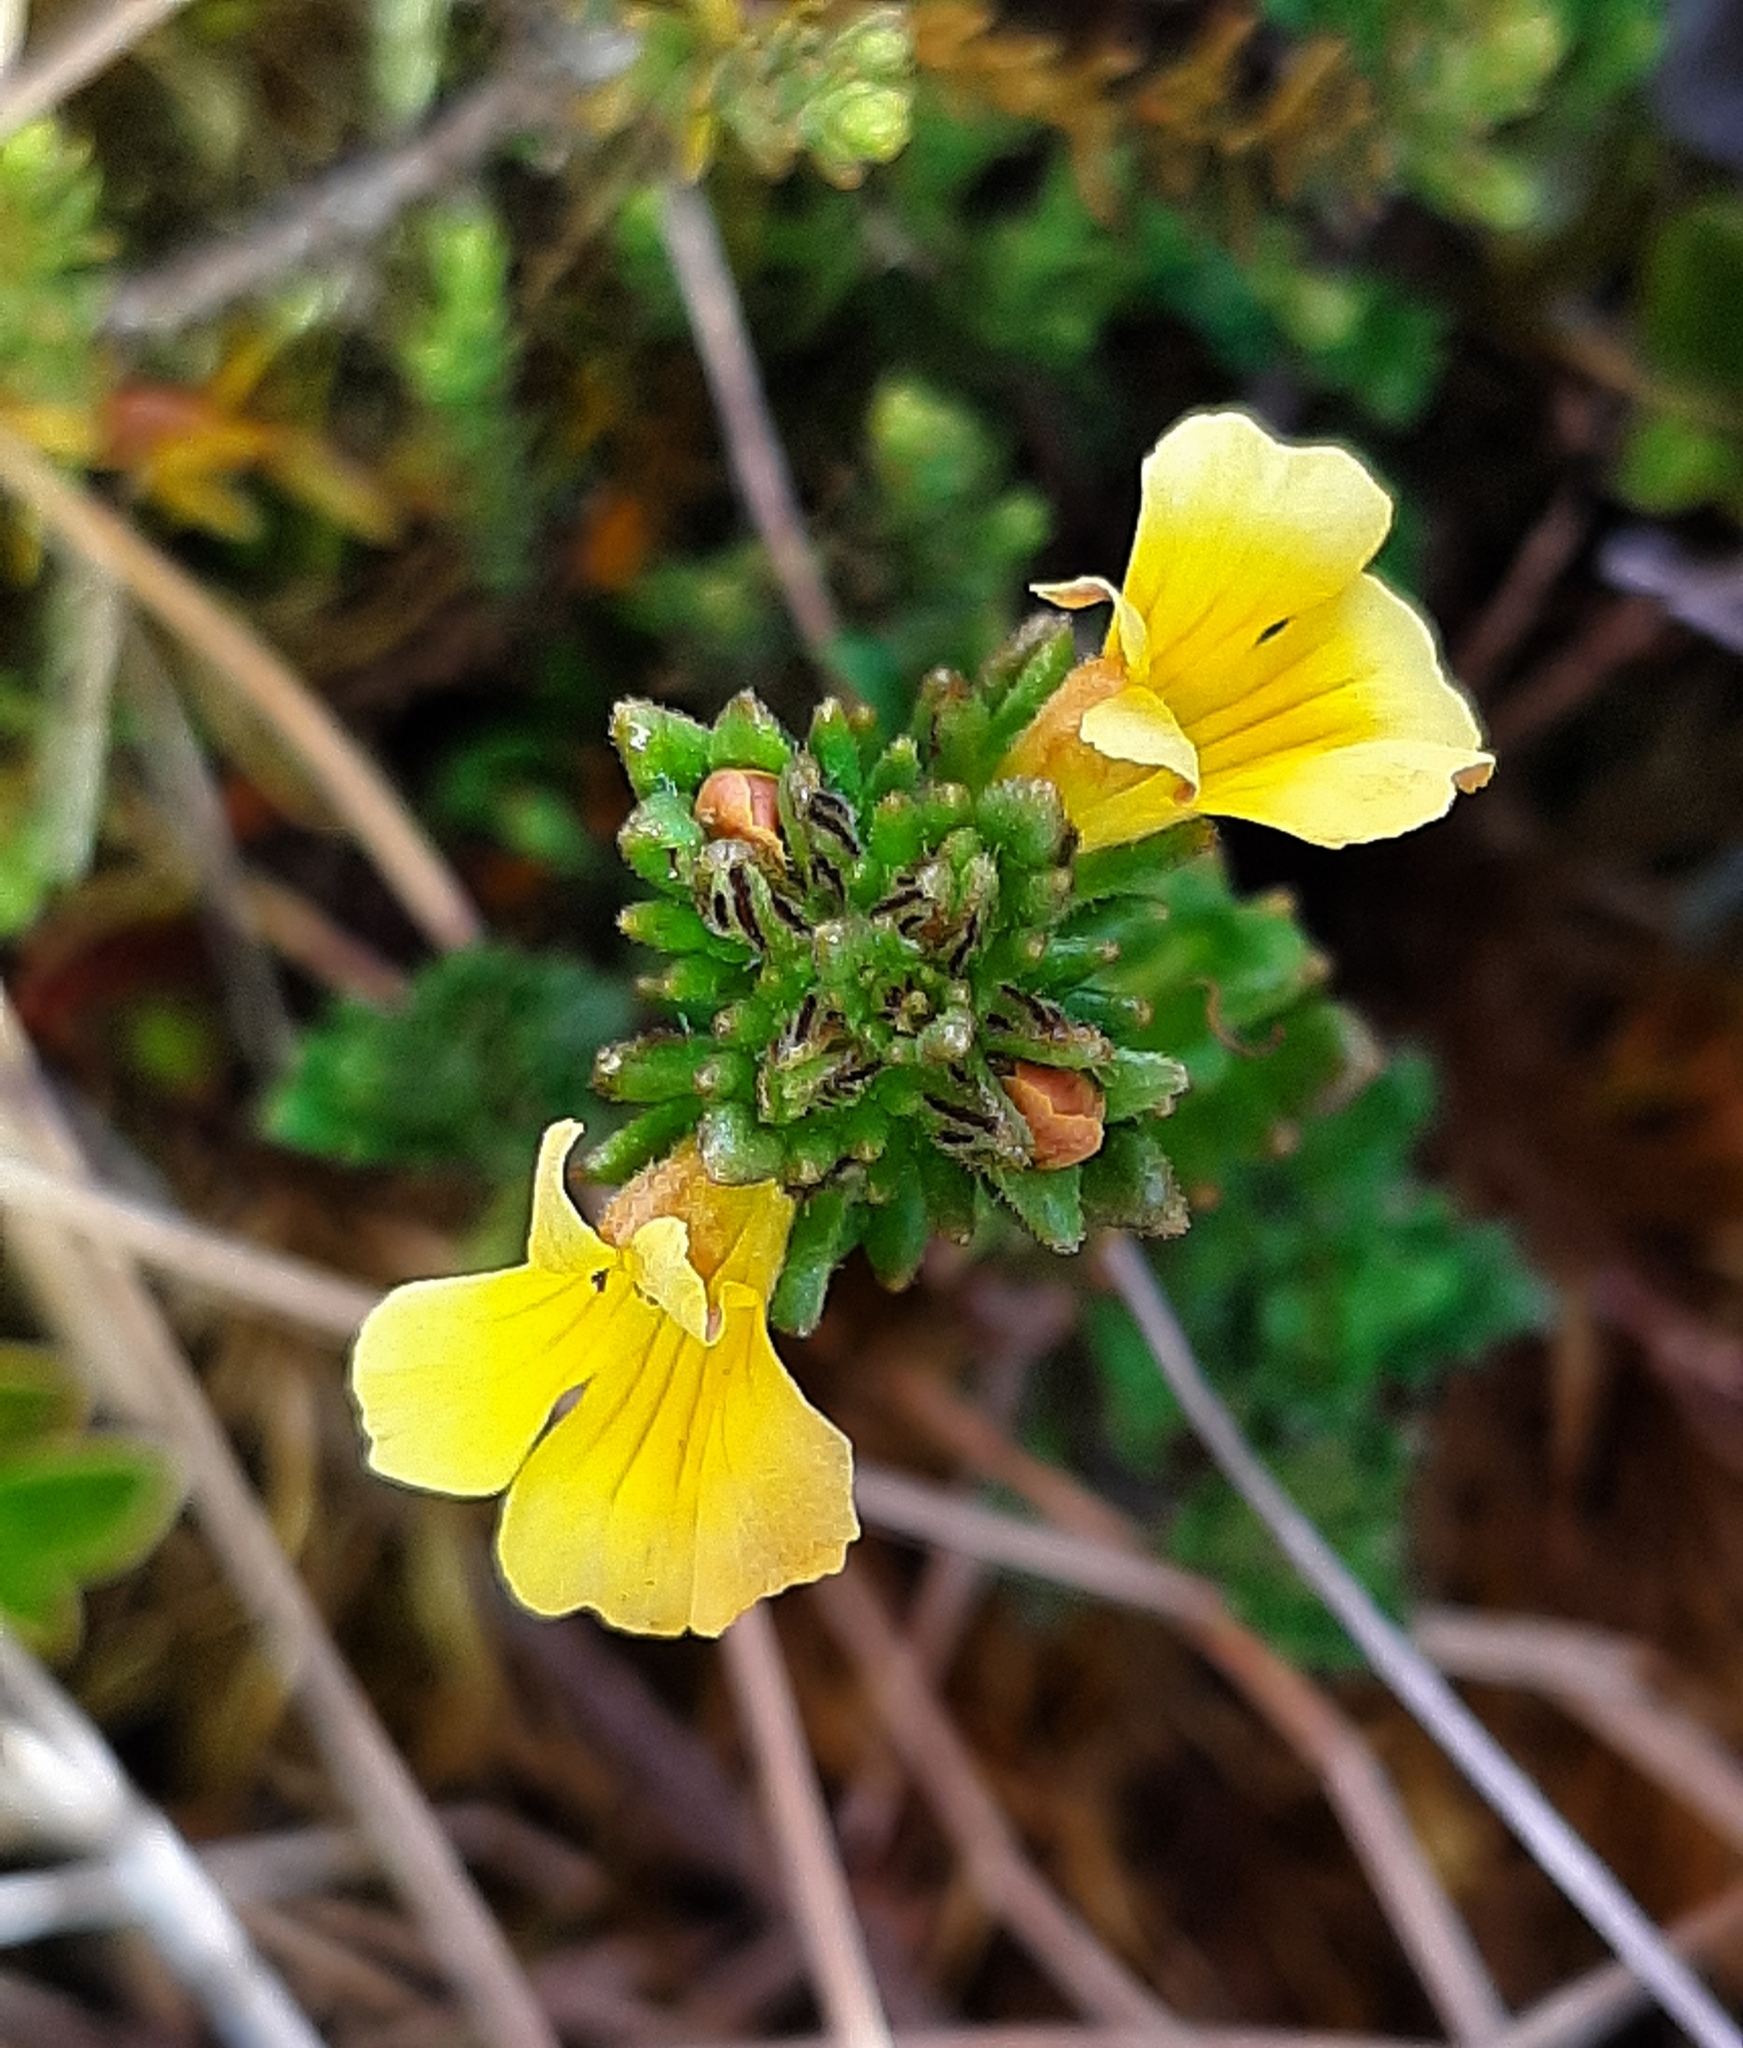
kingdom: Plantae
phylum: Tracheophyta
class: Magnoliopsida
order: Lamiales
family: Orobanchaceae
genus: Euphrasia
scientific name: Euphrasia cockayneana
